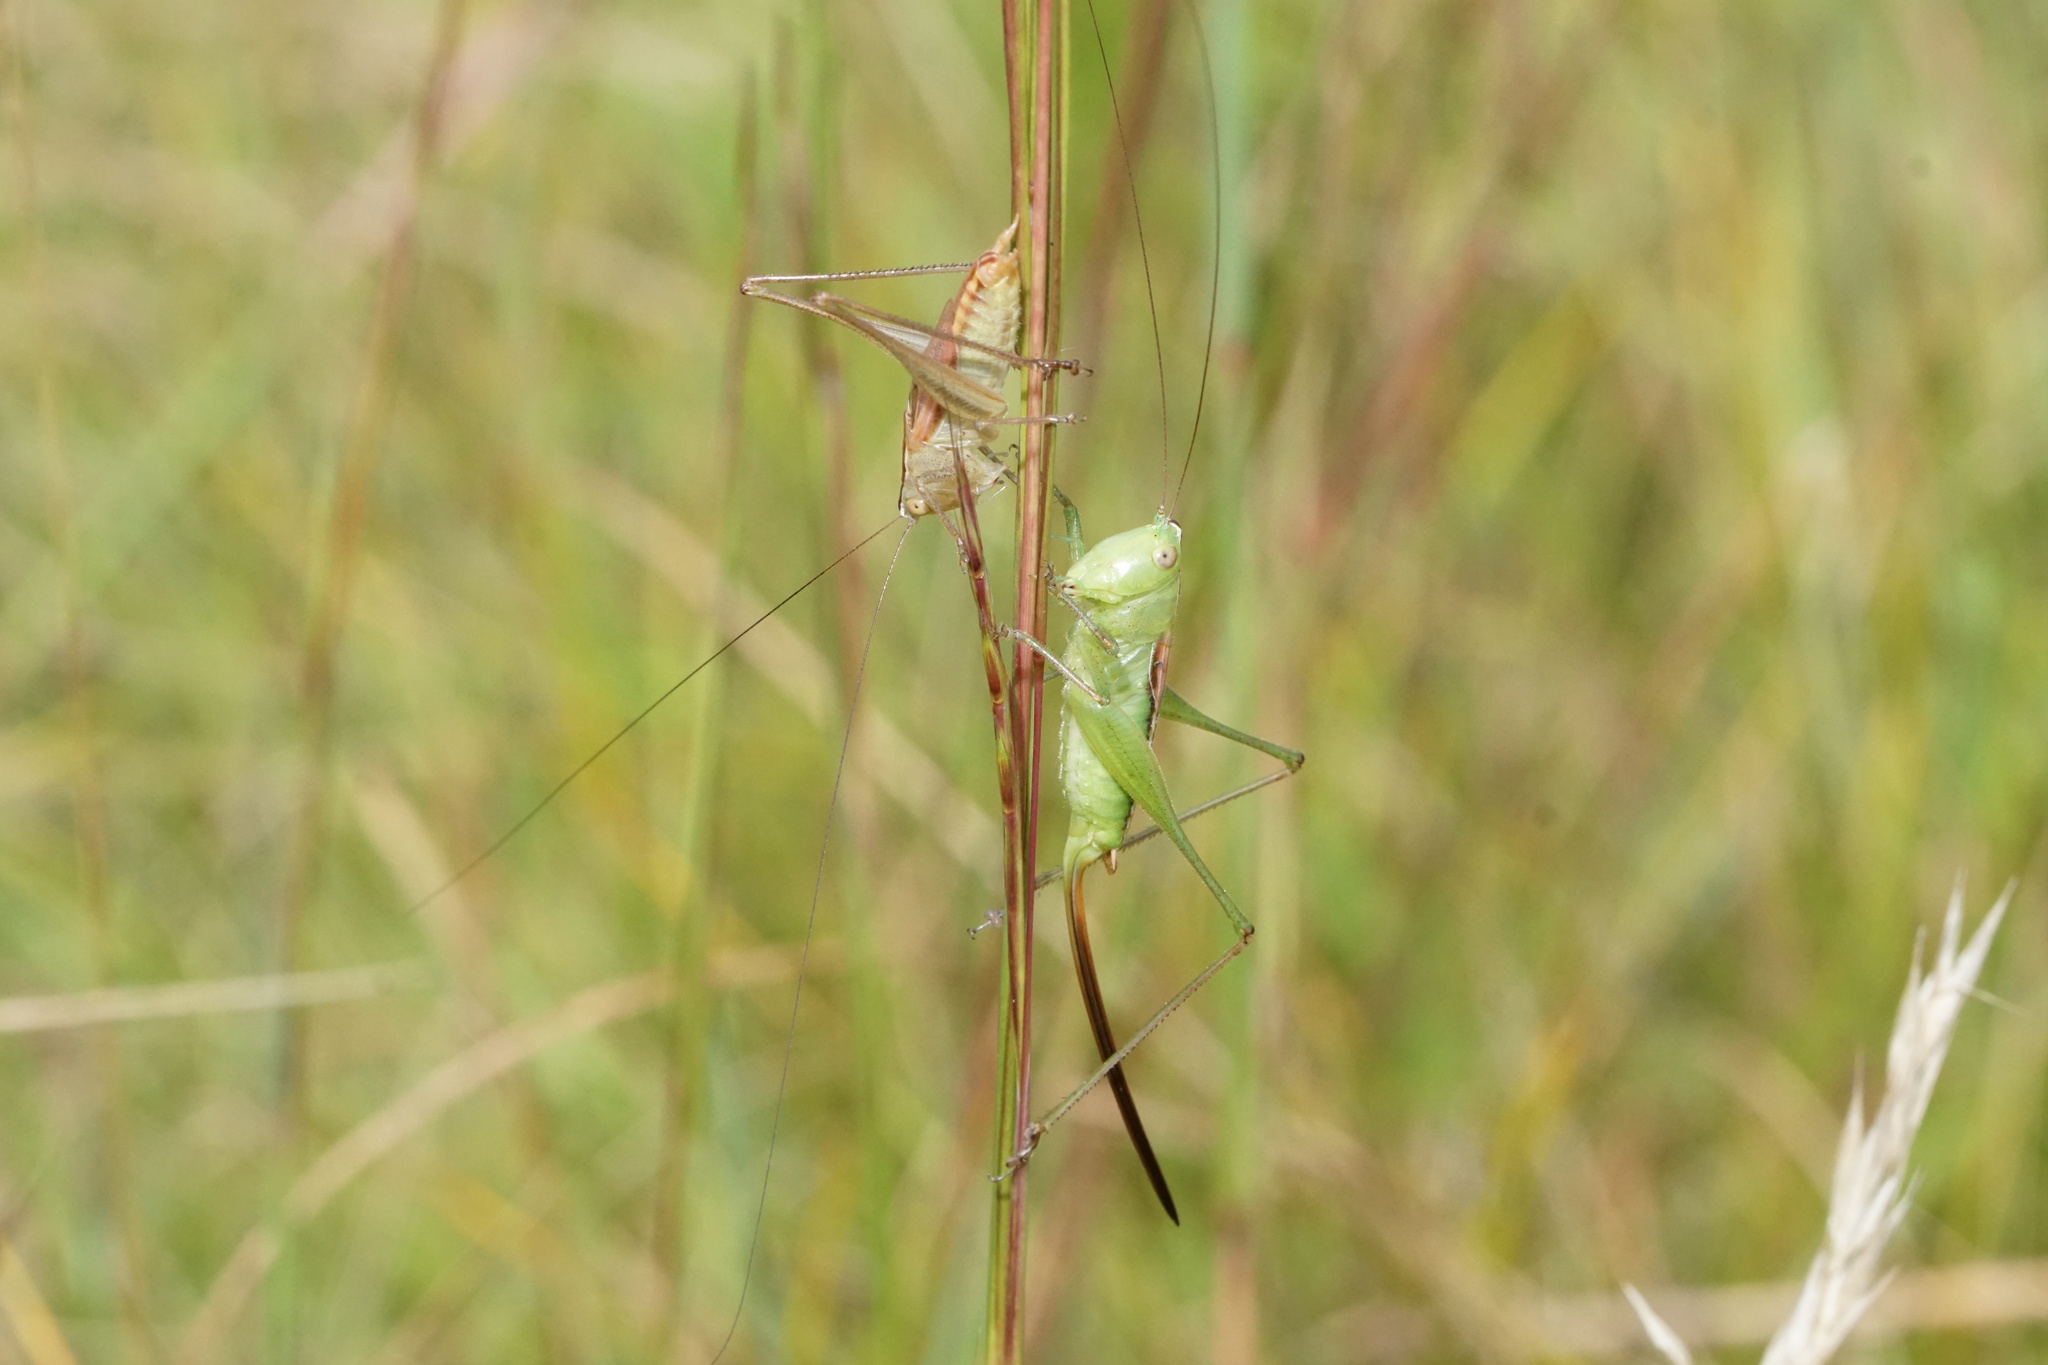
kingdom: Animalia
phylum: Arthropoda
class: Insecta
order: Orthoptera
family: Tettigoniidae
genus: Conocephalus
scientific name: Conocephalus strictus
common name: Straight-lanced katydid
